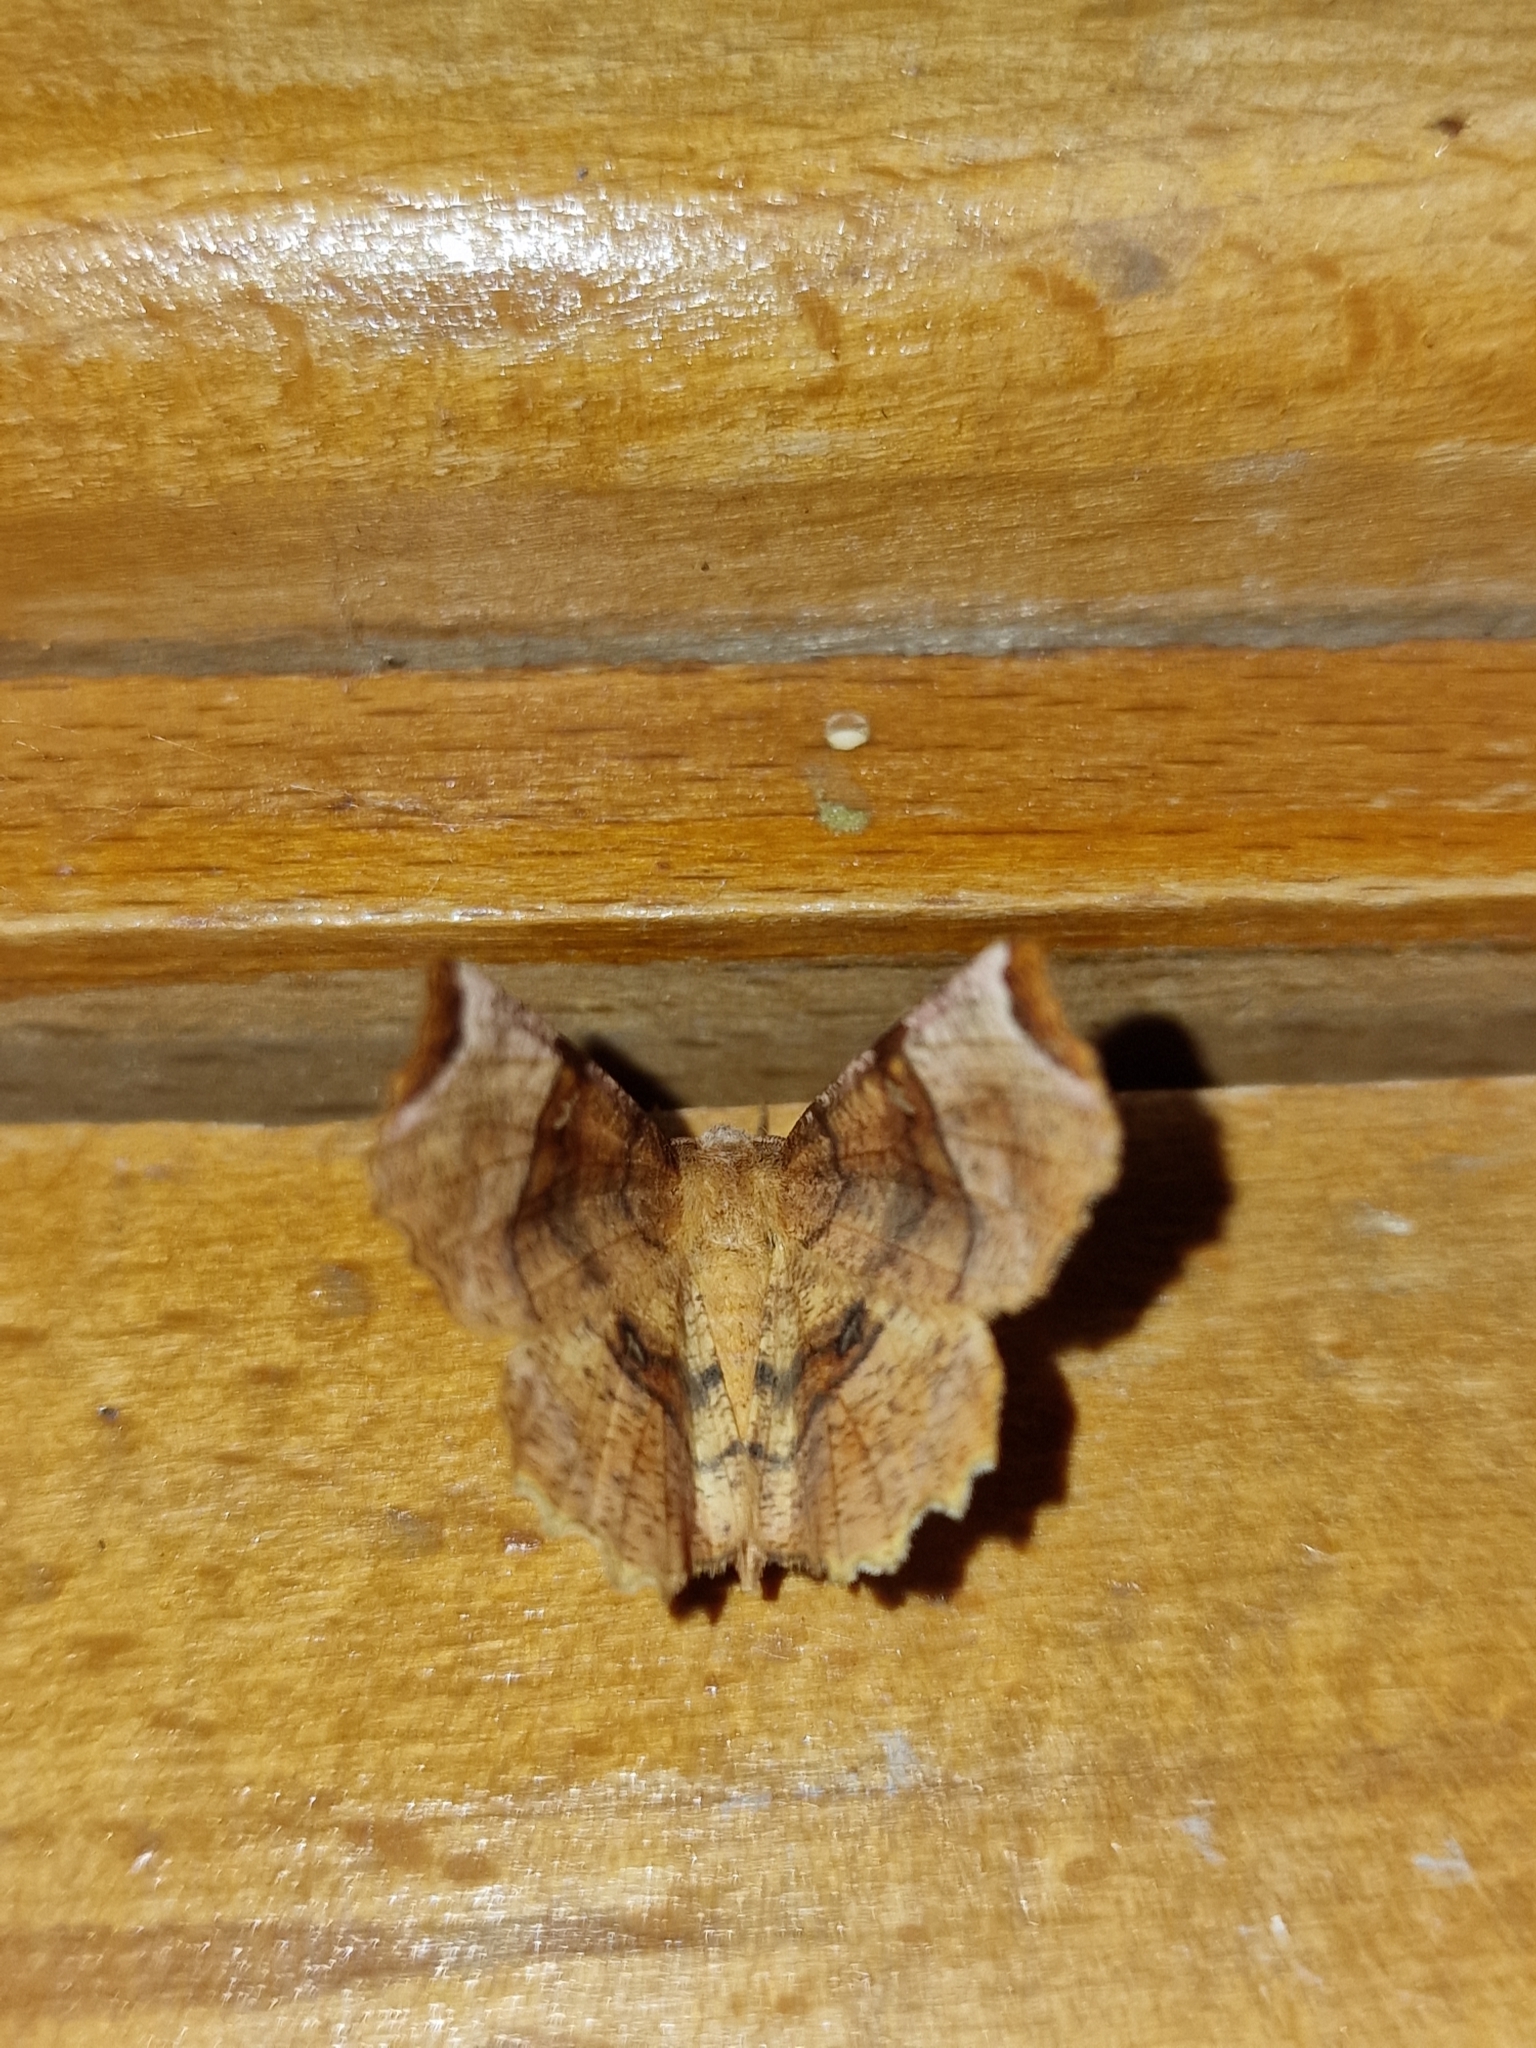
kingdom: Animalia
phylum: Arthropoda
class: Insecta
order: Lepidoptera
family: Geometridae
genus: Selenia
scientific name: Selenia lunularia
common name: Lunar thorn
